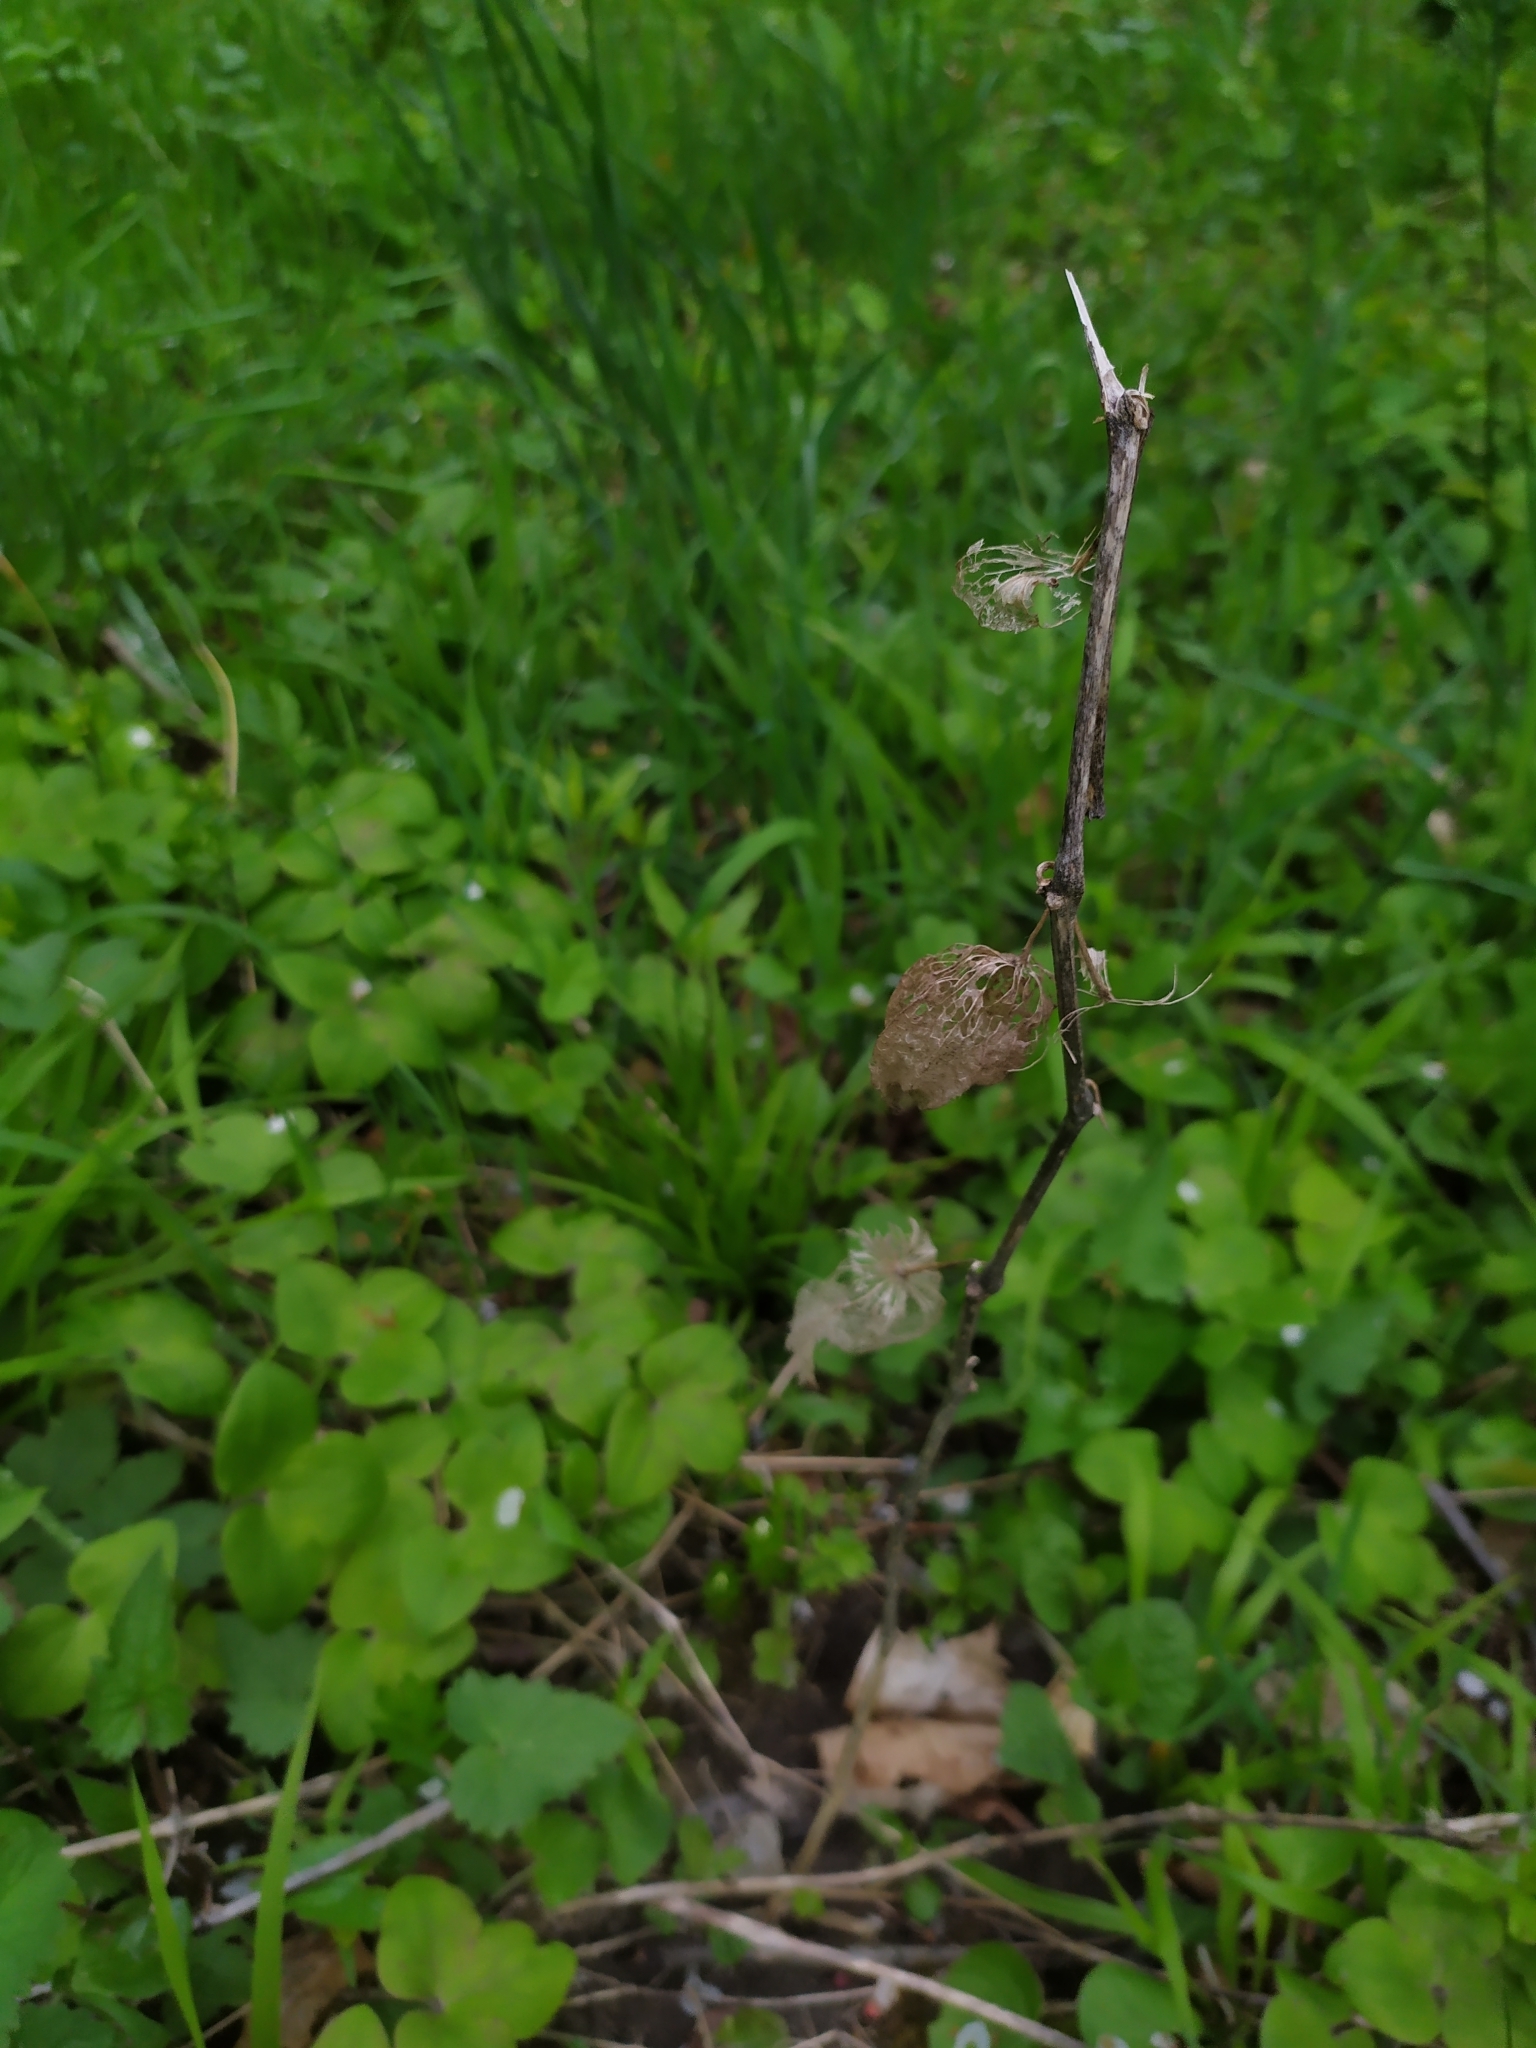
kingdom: Plantae
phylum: Tracheophyta
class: Magnoliopsida
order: Solanales
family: Solanaceae
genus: Alkekengi
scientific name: Alkekengi officinarum
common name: Japanese-lantern
